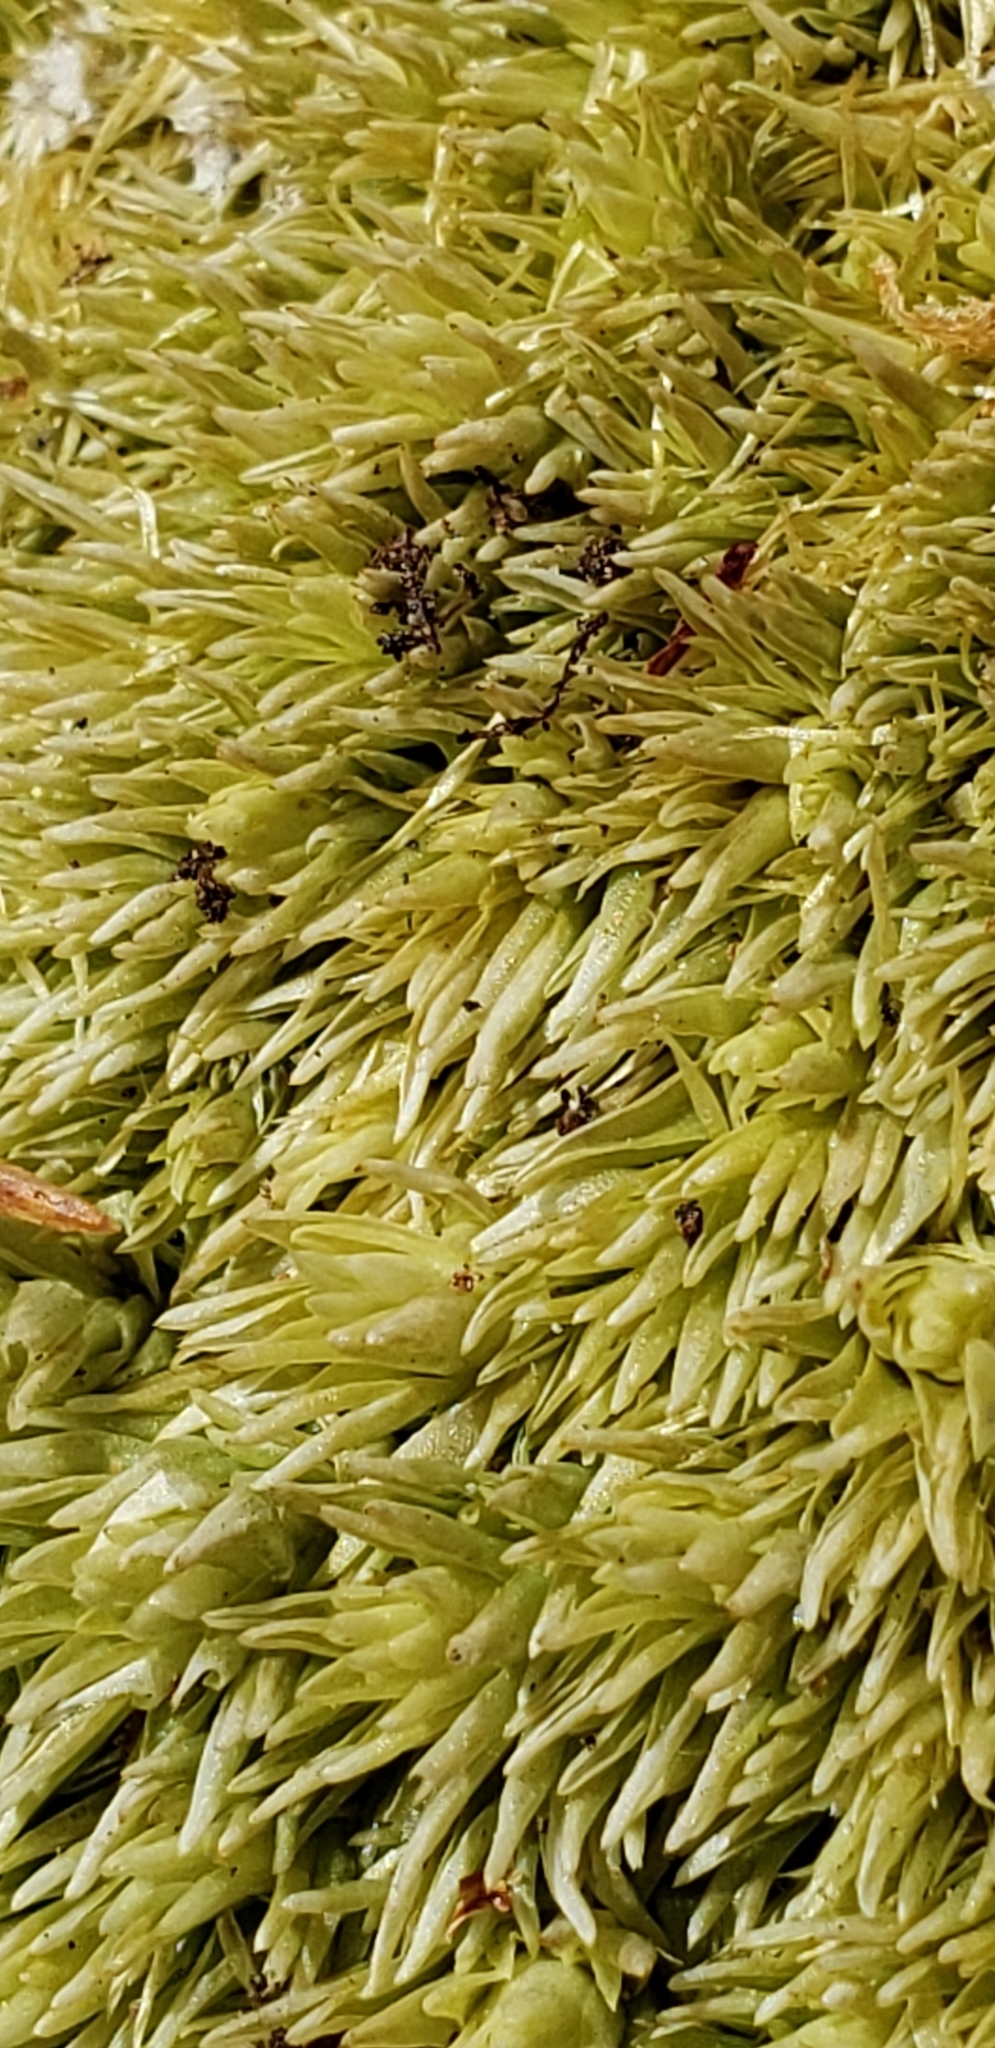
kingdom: Plantae
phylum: Bryophyta
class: Bryopsida
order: Dicranales
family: Leucobryaceae
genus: Leucobryum
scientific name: Leucobryum glaucum
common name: Large white-moss
